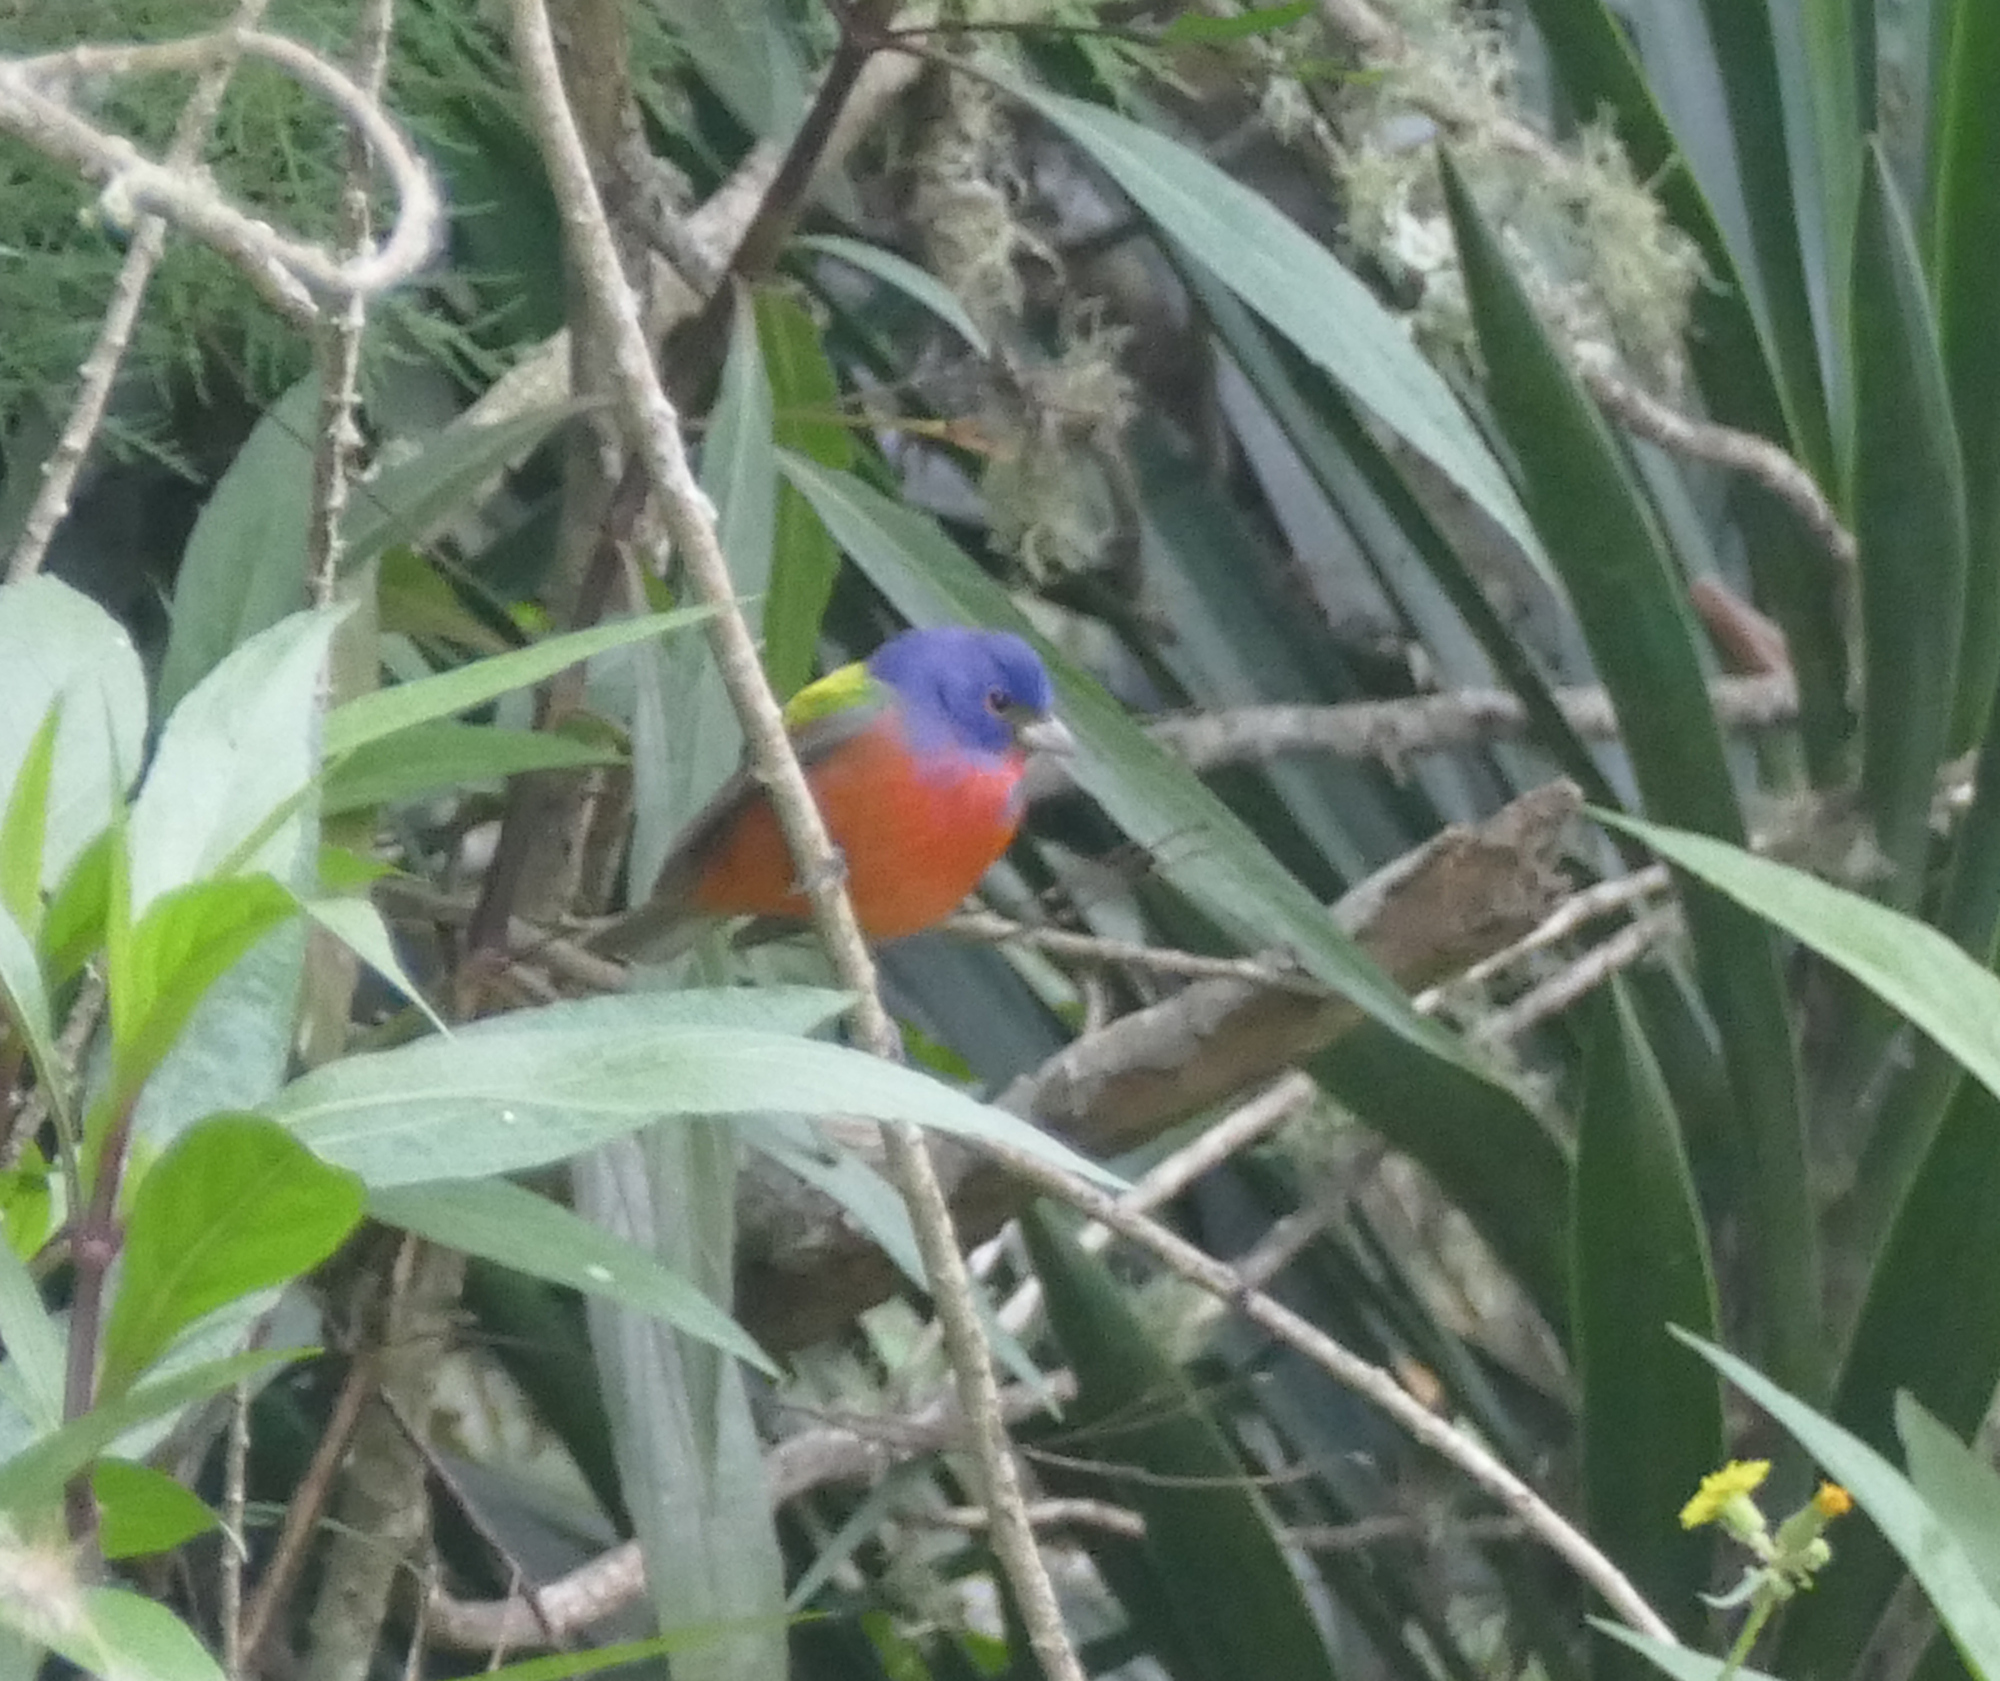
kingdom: Animalia
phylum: Chordata
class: Aves
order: Passeriformes
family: Cardinalidae
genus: Passerina
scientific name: Passerina ciris
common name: Painted bunting
